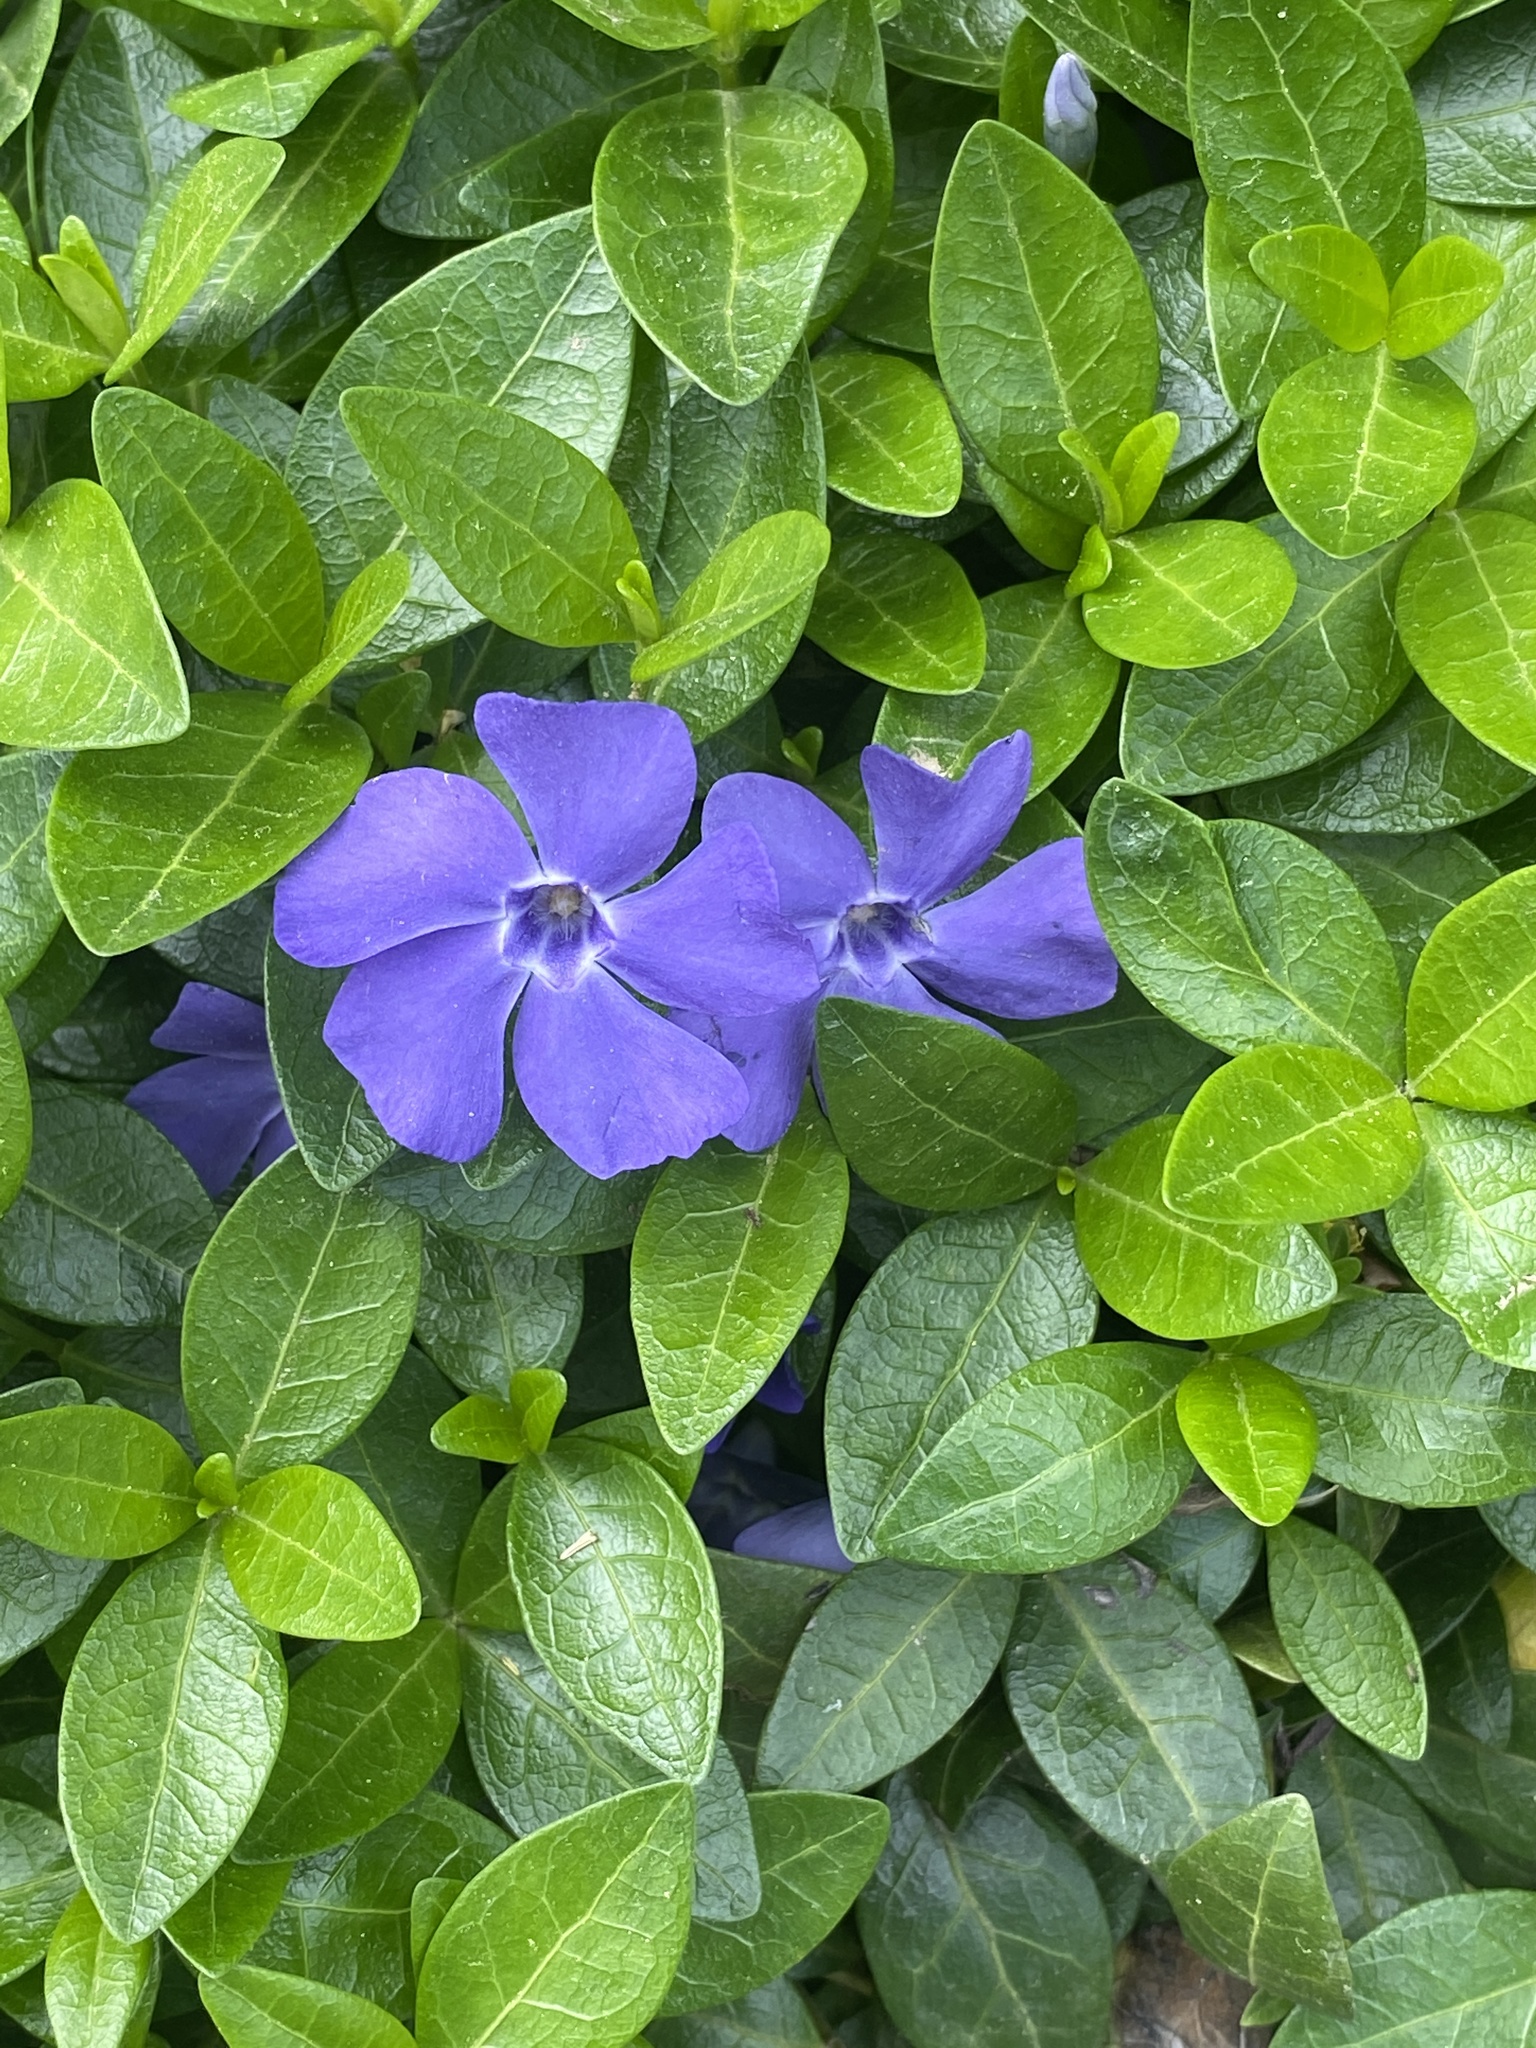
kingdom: Plantae
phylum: Tracheophyta
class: Magnoliopsida
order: Gentianales
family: Apocynaceae
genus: Vinca
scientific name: Vinca minor
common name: Lesser periwinkle
